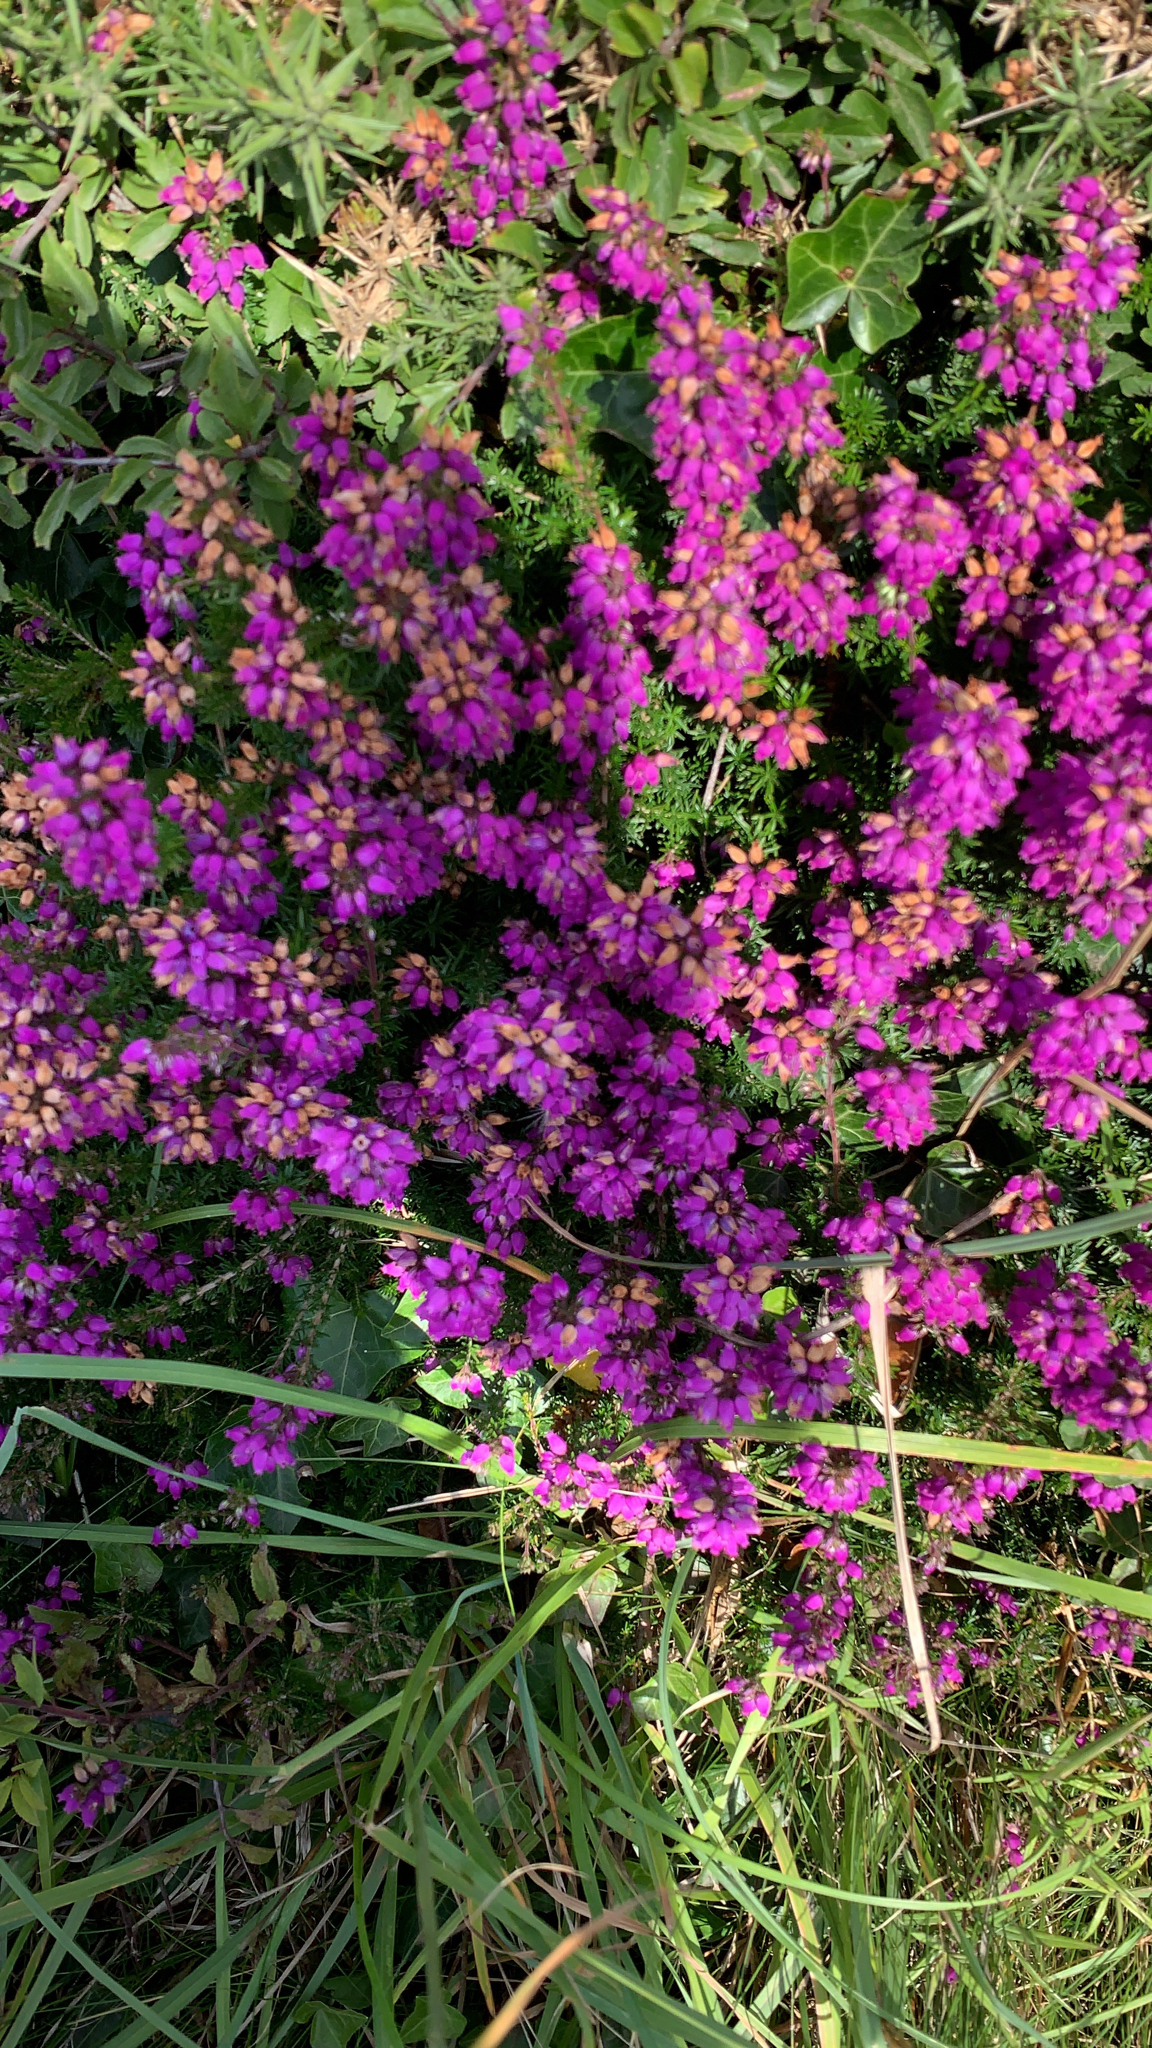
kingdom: Plantae
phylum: Tracheophyta
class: Magnoliopsida
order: Ericales
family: Ericaceae
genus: Erica
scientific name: Erica cinerea
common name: Bell heather
